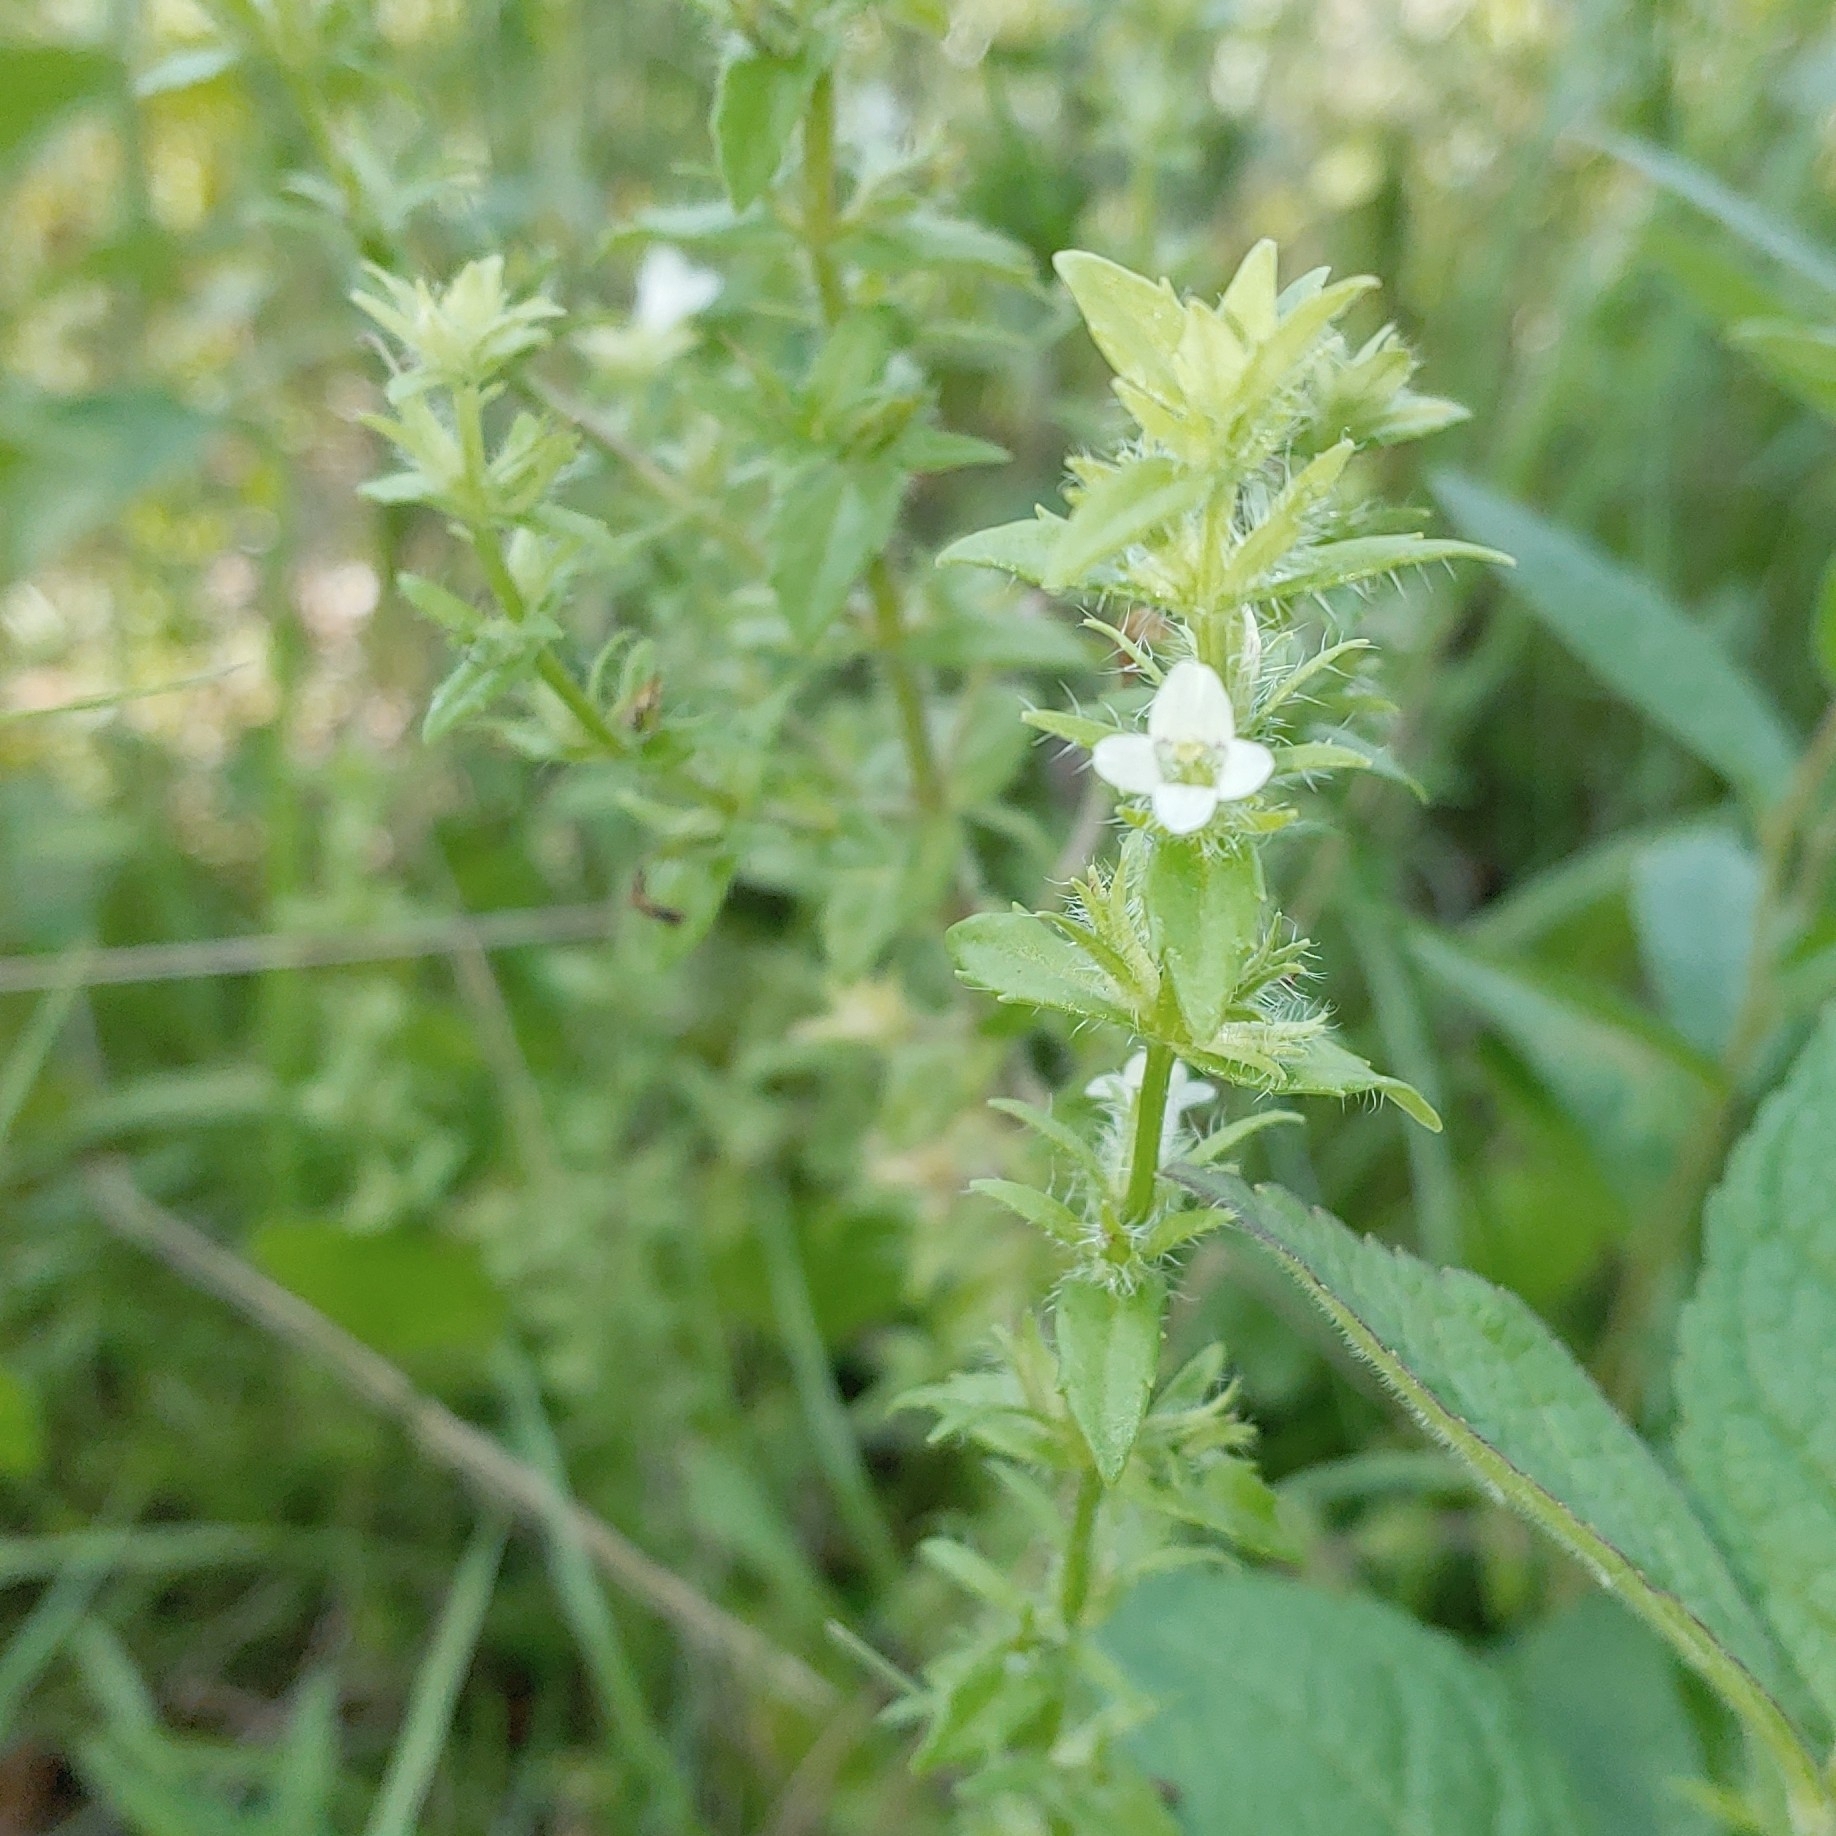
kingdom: Plantae
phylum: Tracheophyta
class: Magnoliopsida
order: Lamiales
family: Plantaginaceae
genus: Gratiola
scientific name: Gratiola pilosa
